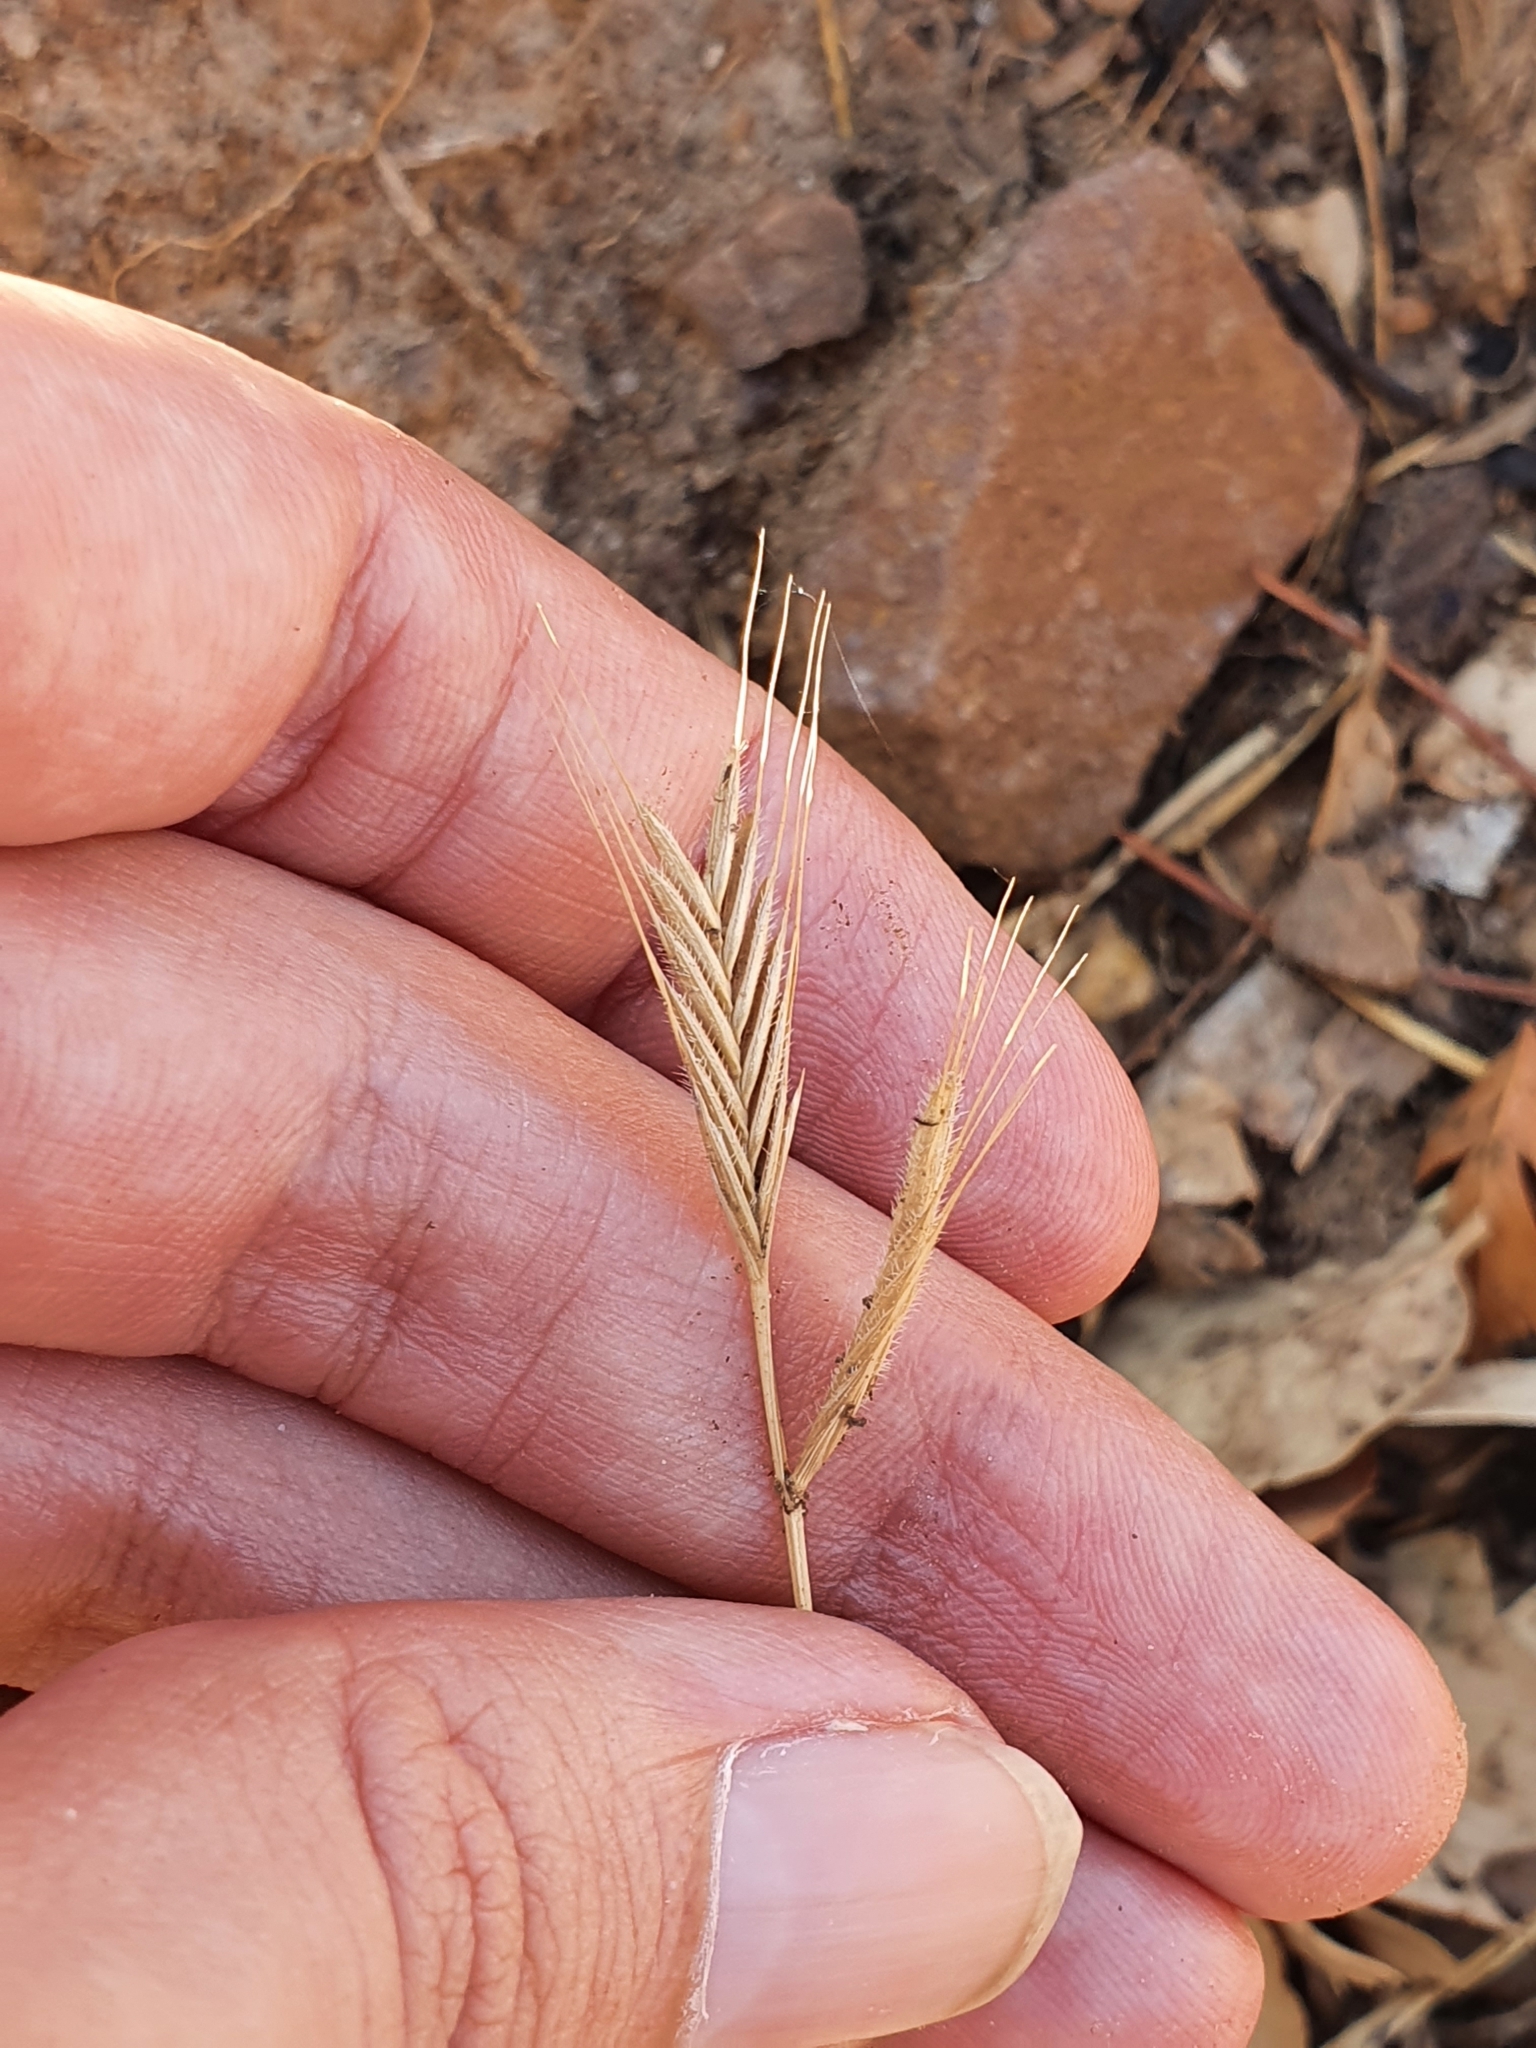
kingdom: Plantae
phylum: Tracheophyta
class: Liliopsida
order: Poales
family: Poaceae
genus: Brachypodium
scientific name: Brachypodium distachyon
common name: Stiff brome
